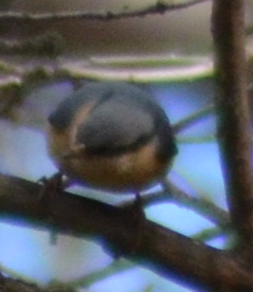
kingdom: Animalia
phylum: Chordata
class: Aves
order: Passeriformes
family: Sittidae
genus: Sitta
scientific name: Sitta europaea
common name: Eurasian nuthatch
